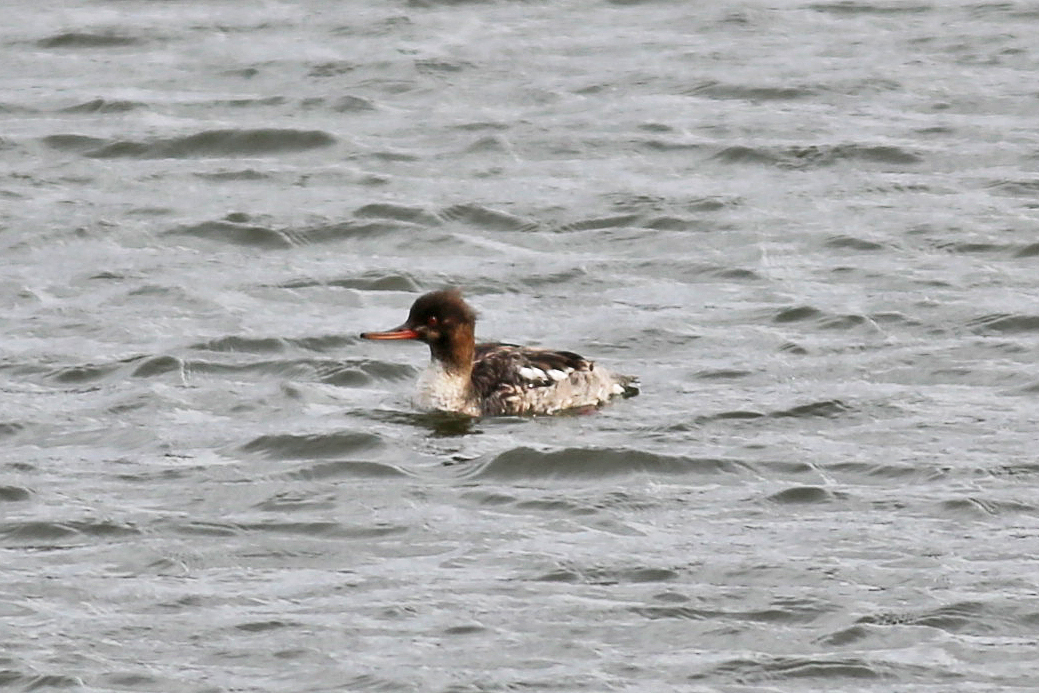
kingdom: Animalia
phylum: Chordata
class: Aves
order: Anseriformes
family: Anatidae
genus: Mergus
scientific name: Mergus serrator
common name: Red-breasted merganser
